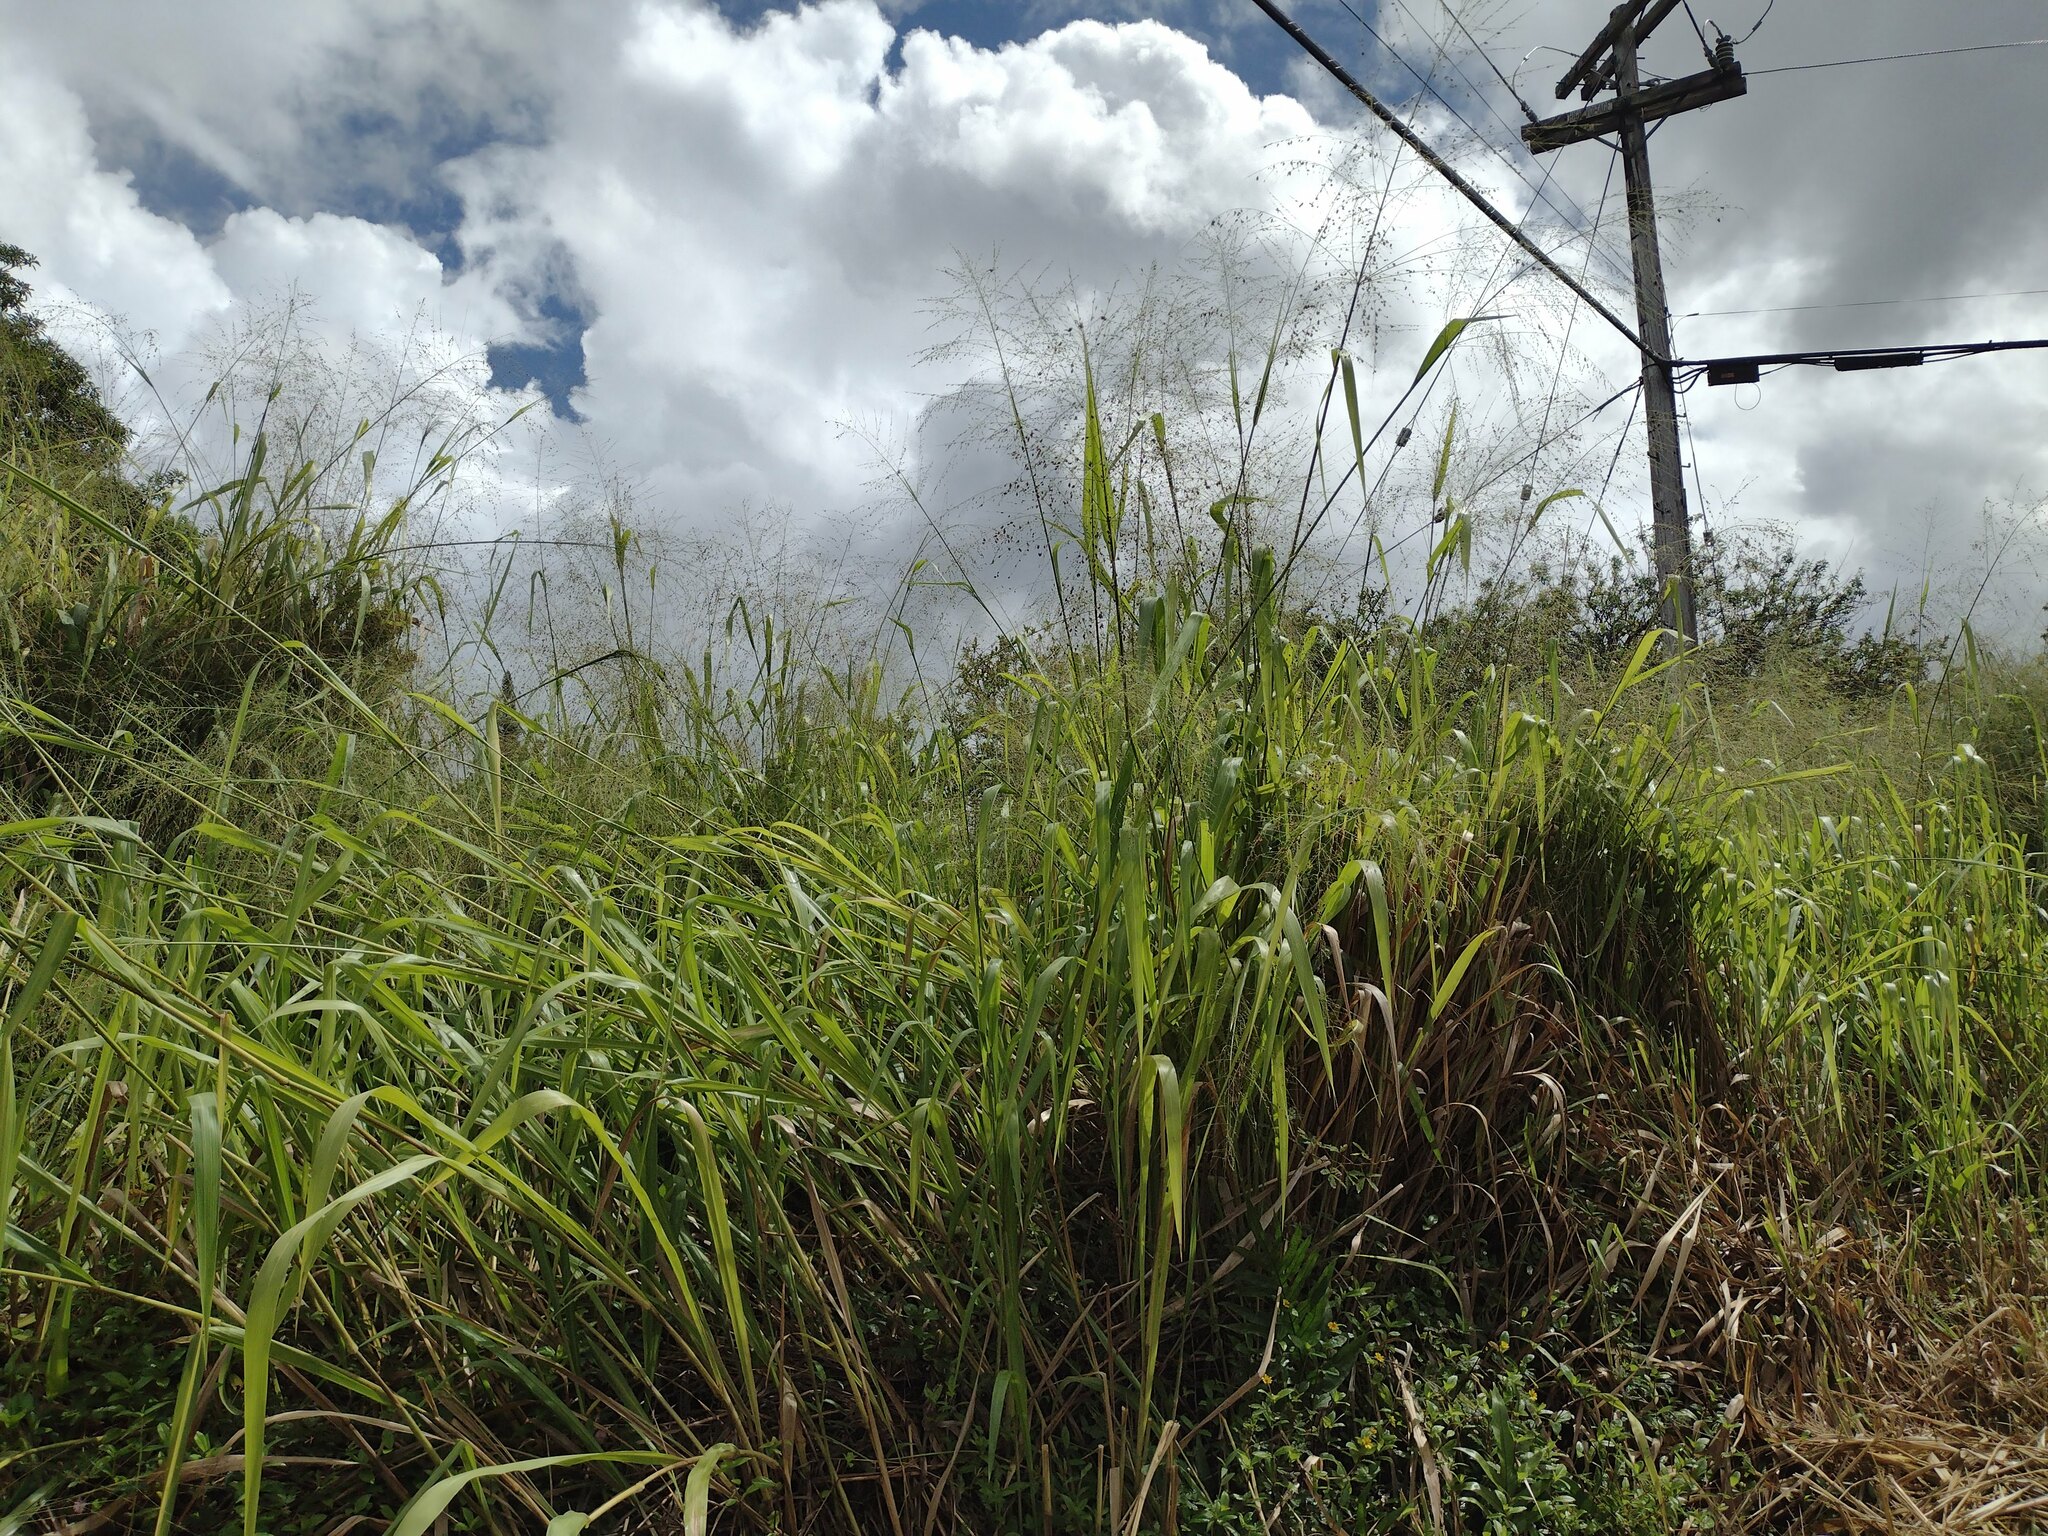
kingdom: Plantae
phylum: Tracheophyta
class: Liliopsida
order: Poales
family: Poaceae
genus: Megathyrsus
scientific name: Megathyrsus maximus
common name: Guineagrass
